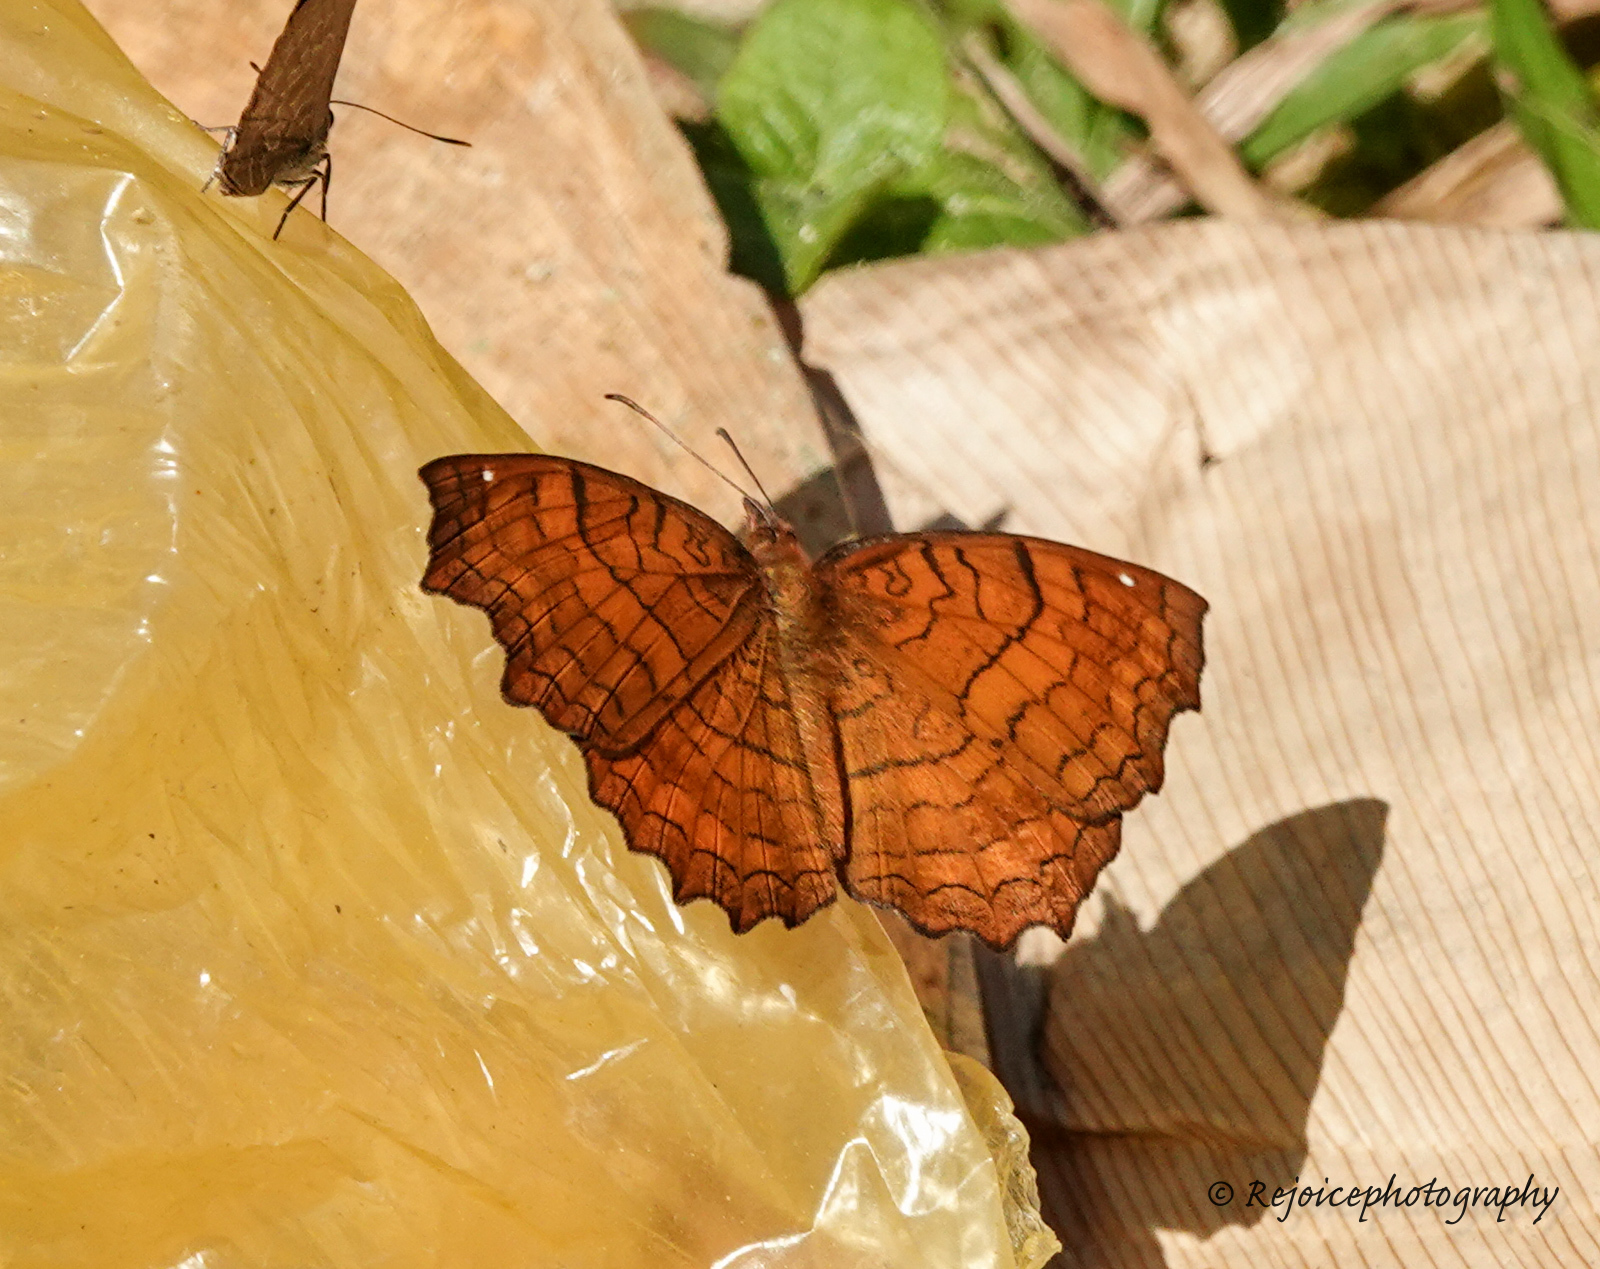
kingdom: Animalia
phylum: Arthropoda
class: Insecta
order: Lepidoptera
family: Nymphalidae
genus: Ariadne
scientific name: Ariadne ariadne
